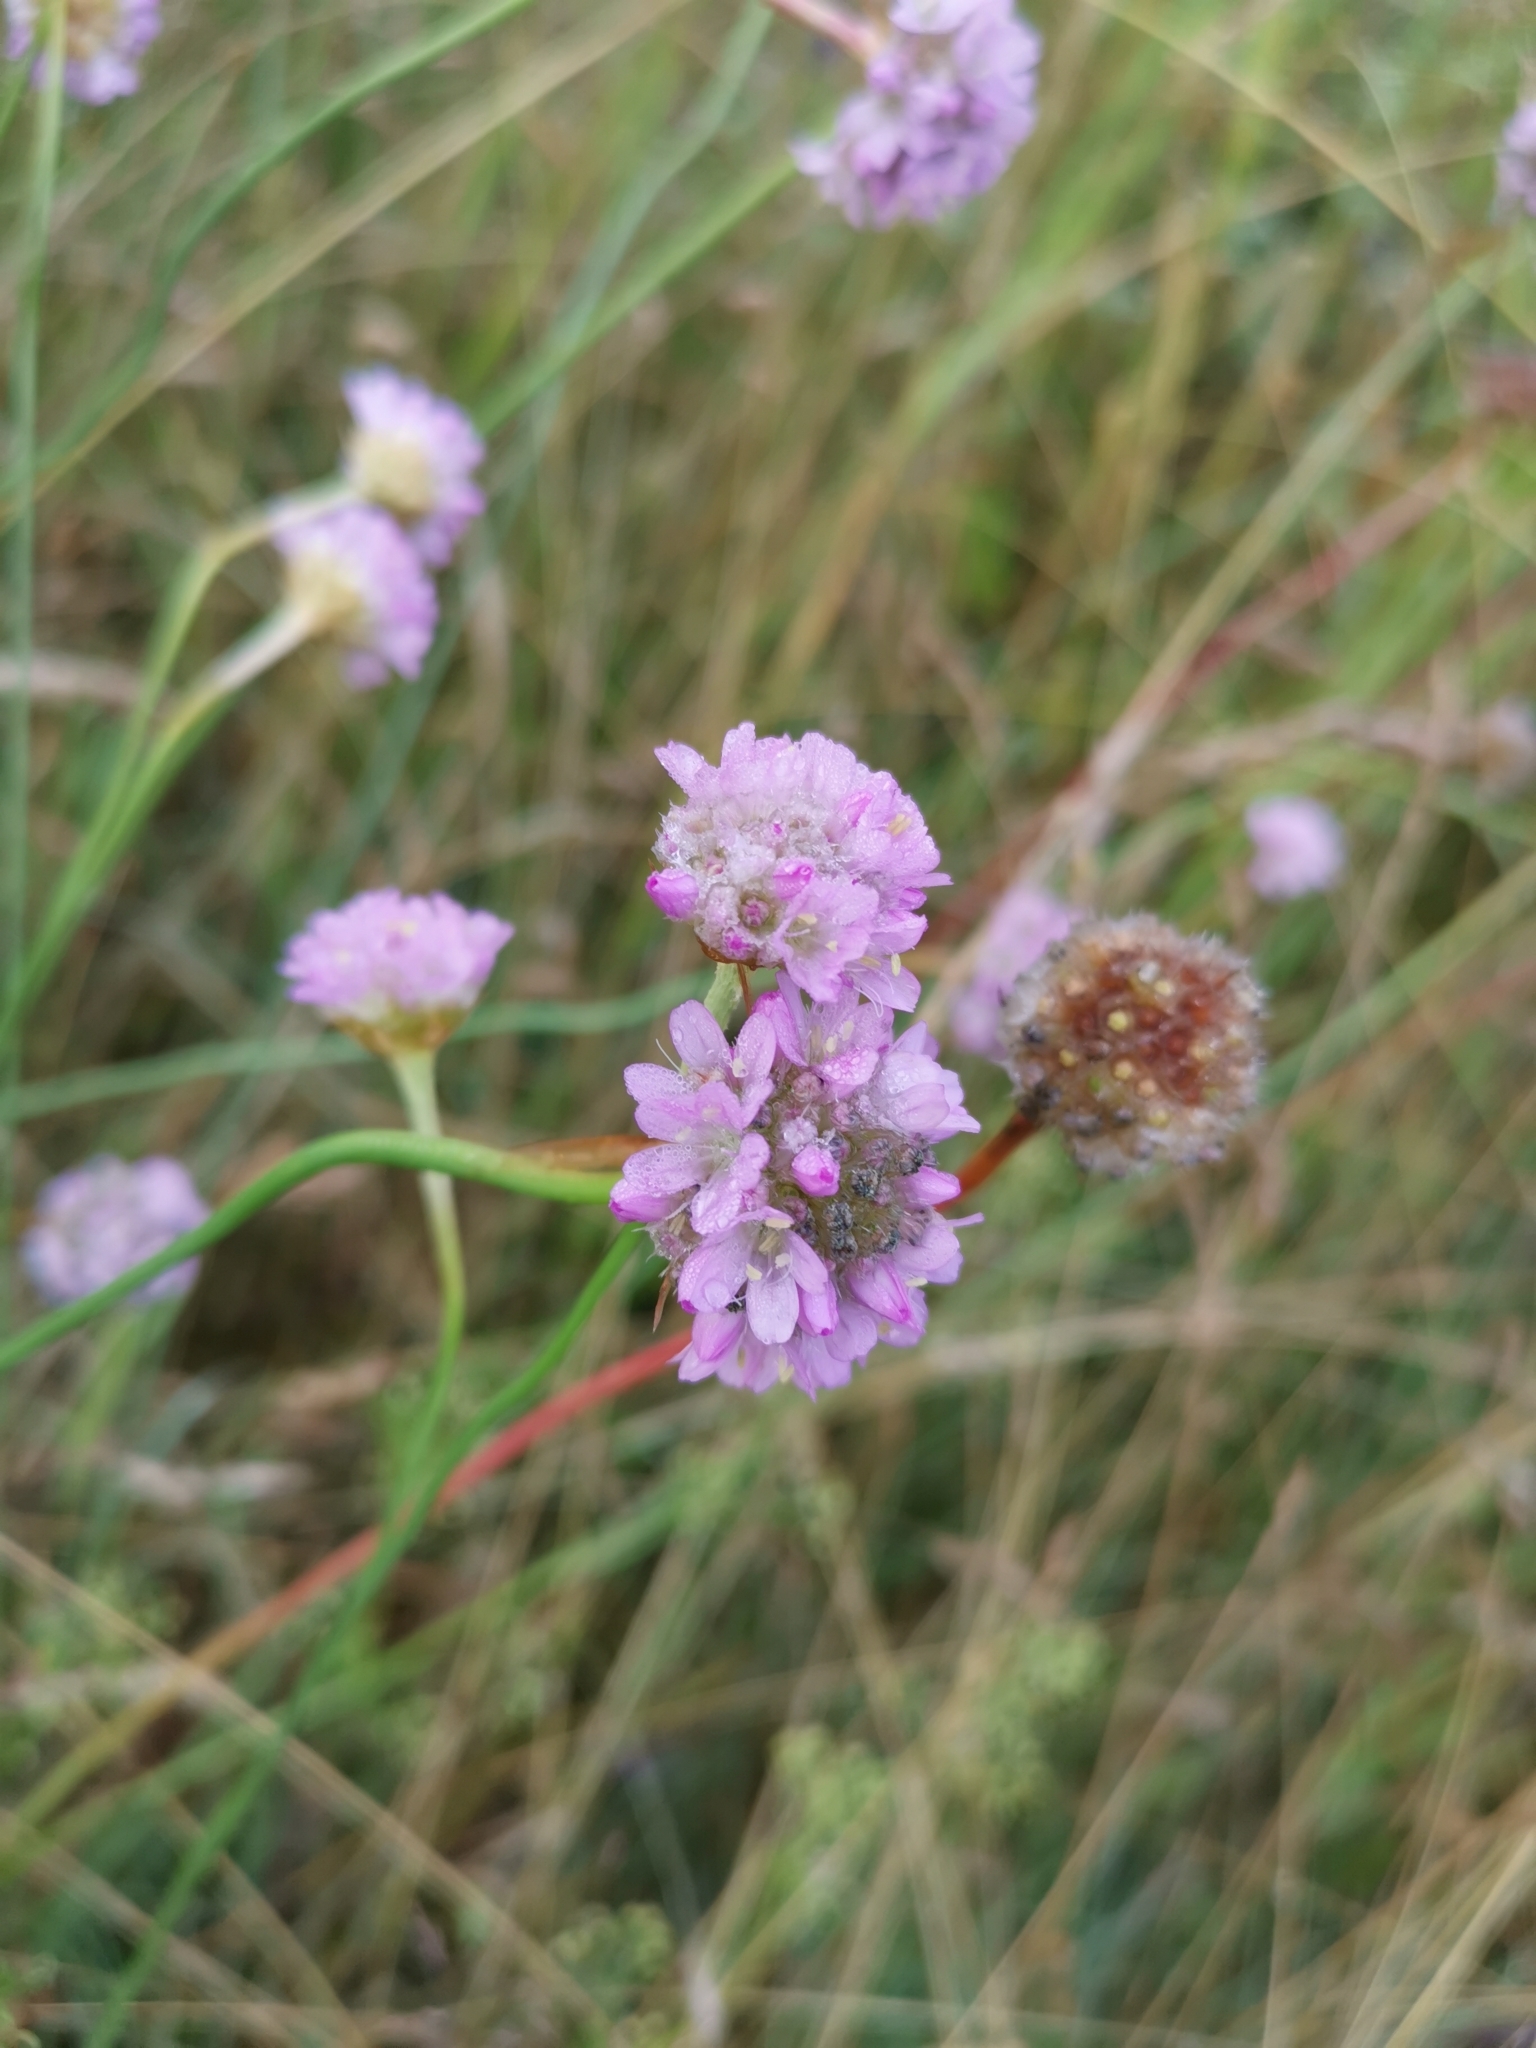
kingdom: Plantae
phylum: Tracheophyta
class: Magnoliopsida
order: Caryophyllales
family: Plumbaginaceae
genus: Armeria
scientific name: Armeria maritima
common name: Thrift
